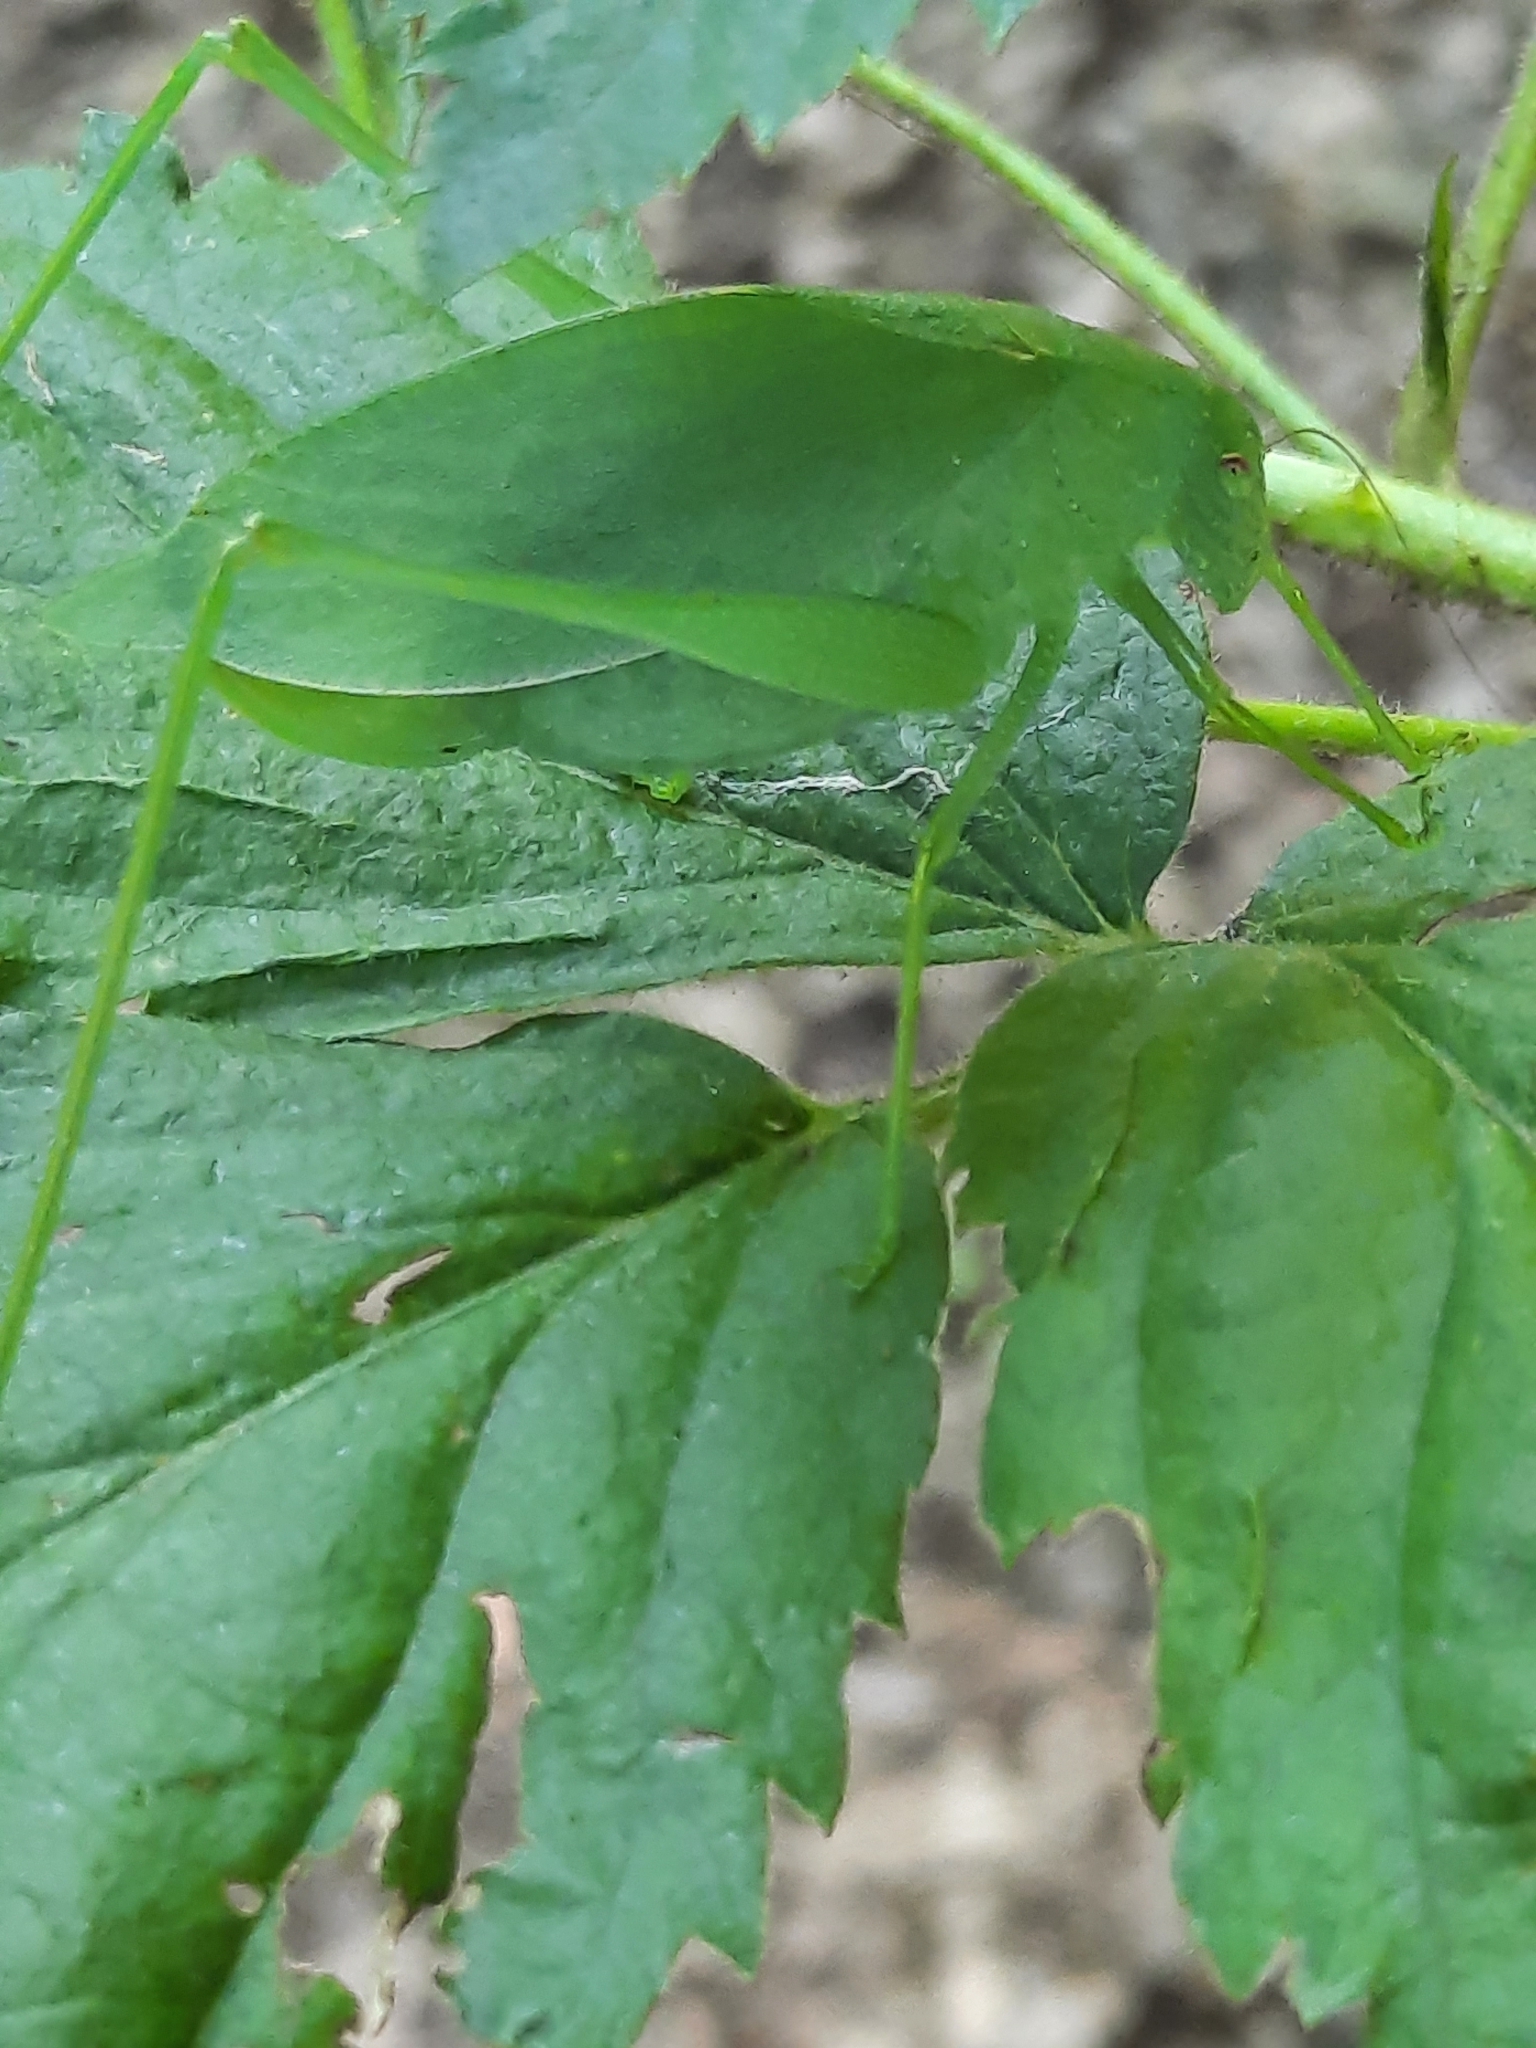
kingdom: Animalia
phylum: Arthropoda
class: Insecta
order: Orthoptera
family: Tettigoniidae
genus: Amblycorypha
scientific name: Amblycorypha rotundifolia
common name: Rattler round-winged katydid
